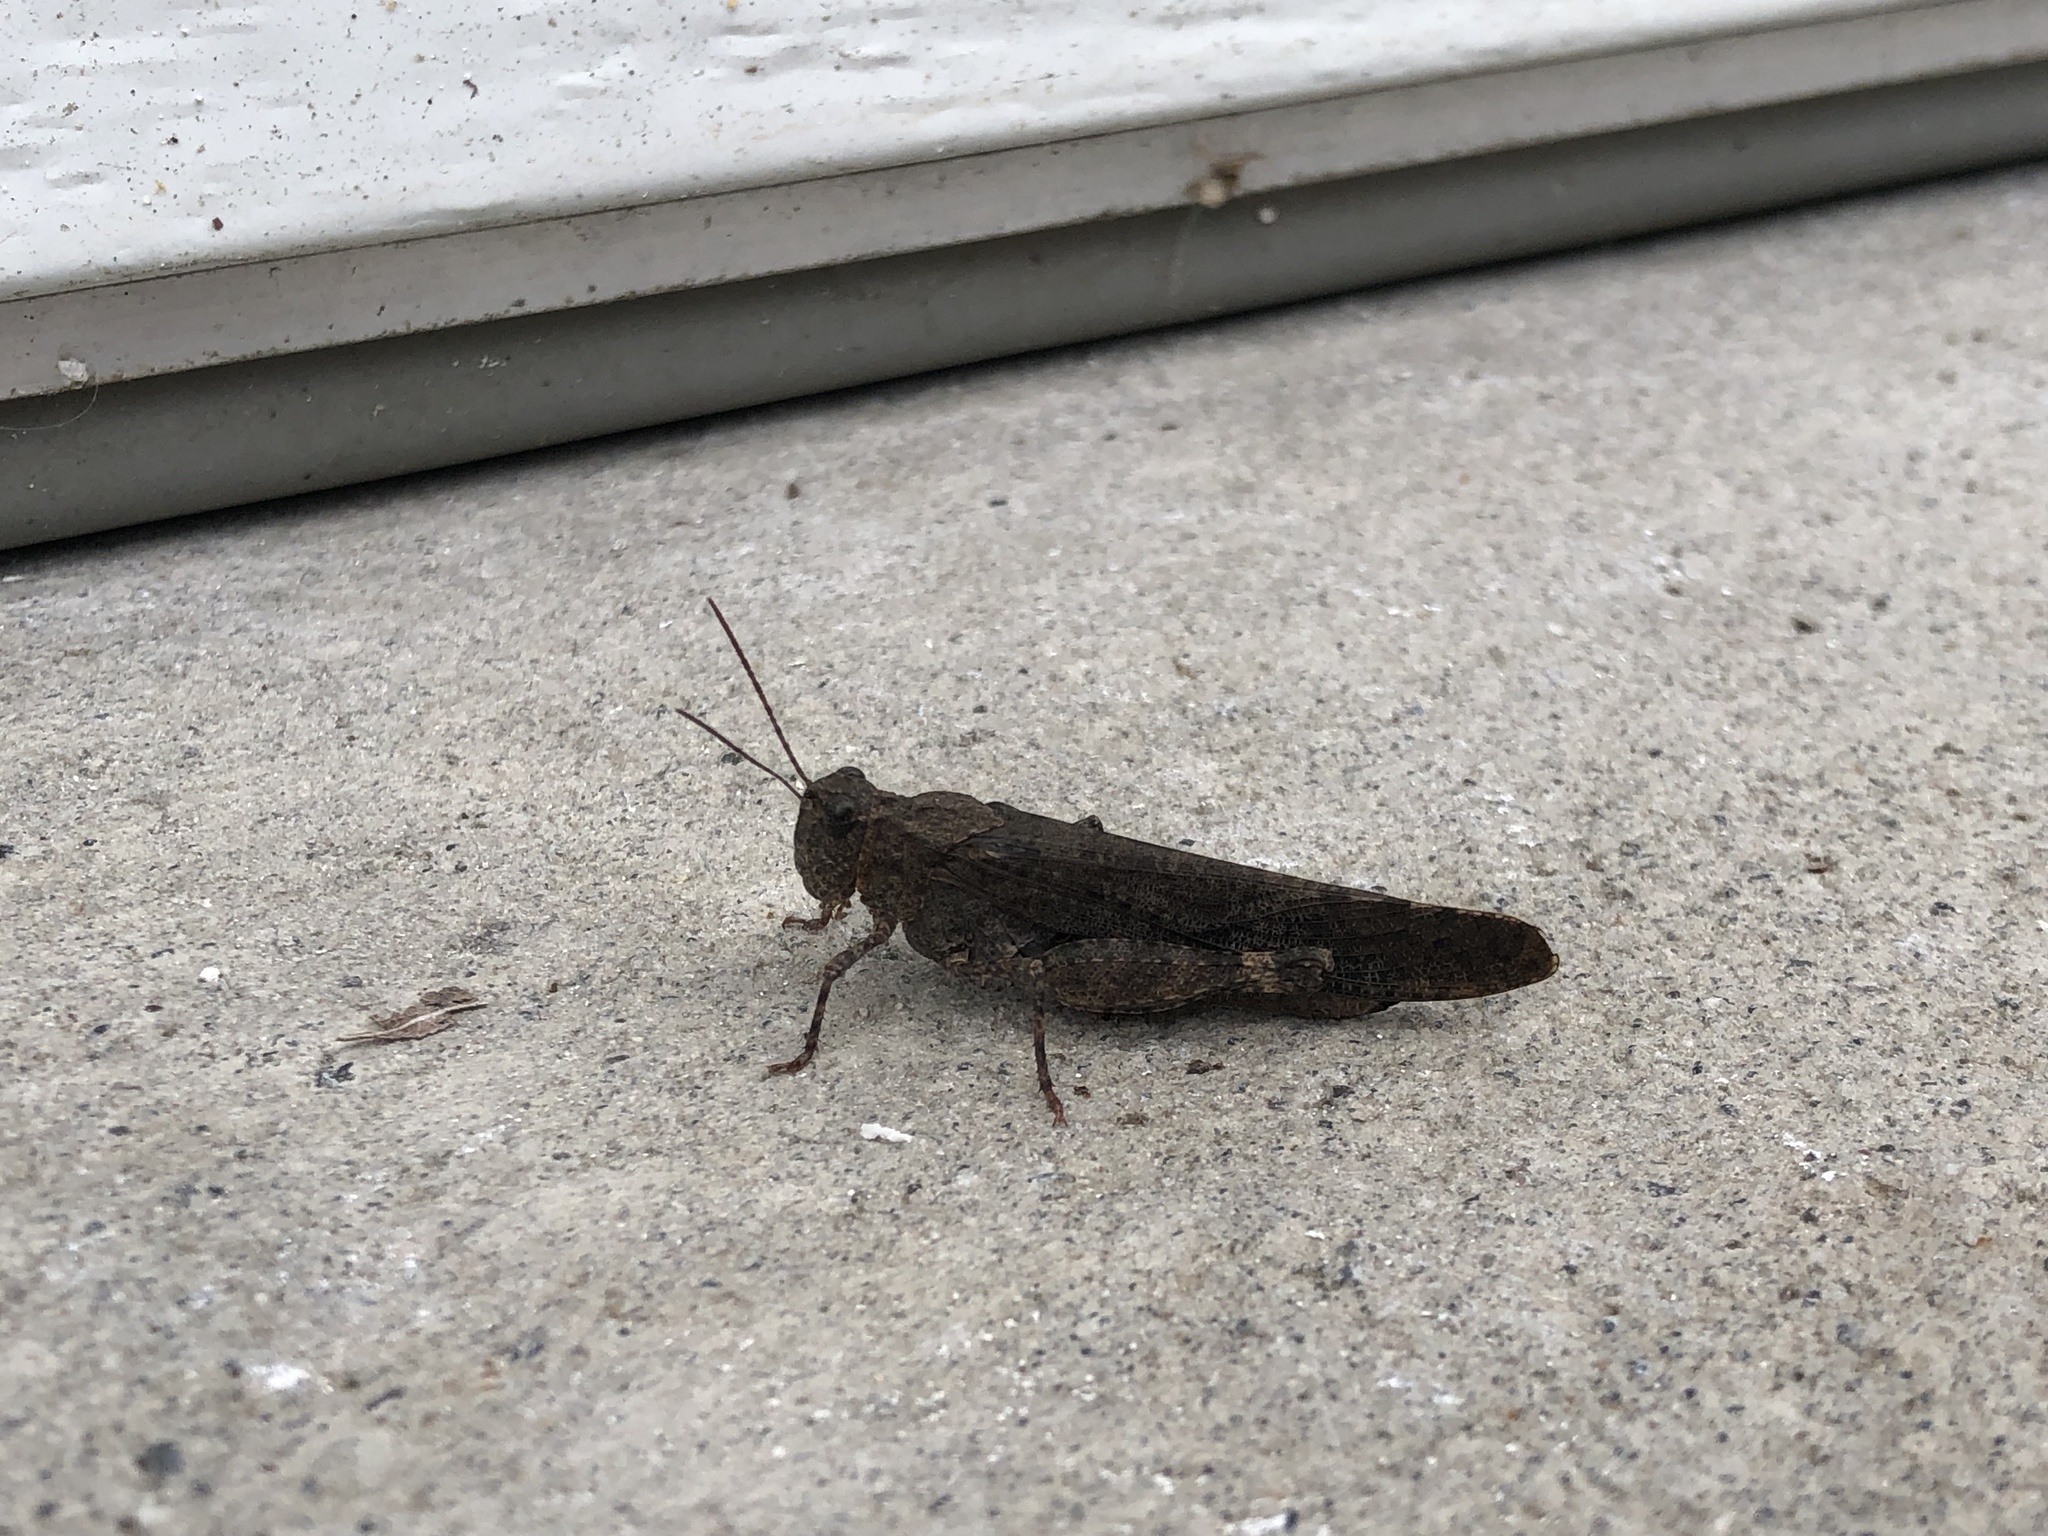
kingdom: Animalia
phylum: Arthropoda
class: Insecta
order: Orthoptera
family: Acrididae
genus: Trimerotropis
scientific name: Trimerotropis verruculata
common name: Crackling forest grasshopper
